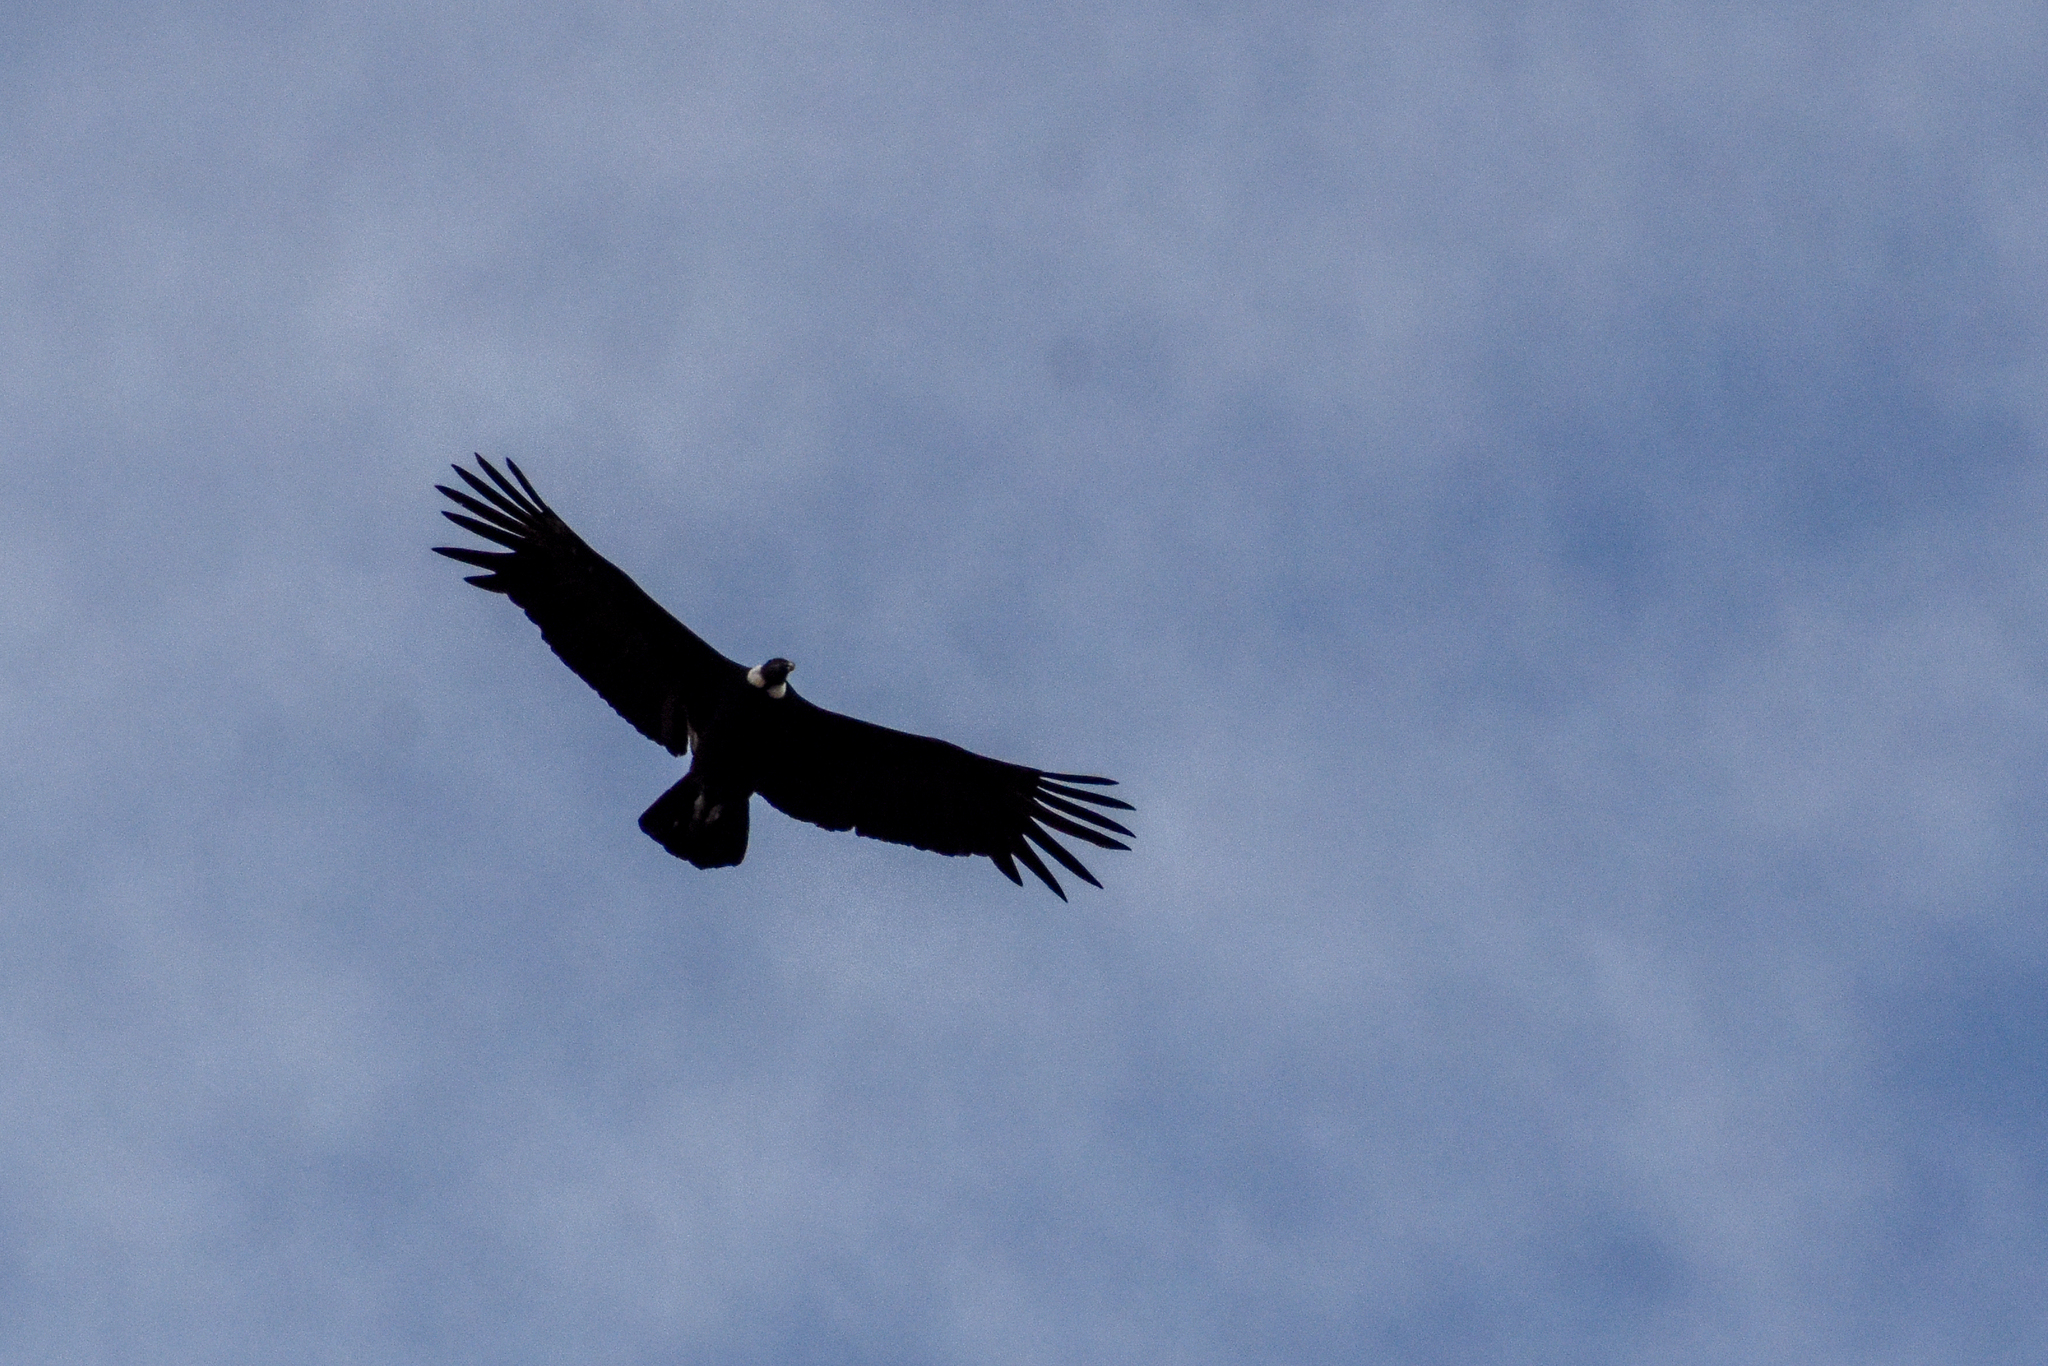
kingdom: Animalia
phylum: Chordata
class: Aves
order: Accipitriformes
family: Cathartidae
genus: Vultur
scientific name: Vultur gryphus
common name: Andean condor
